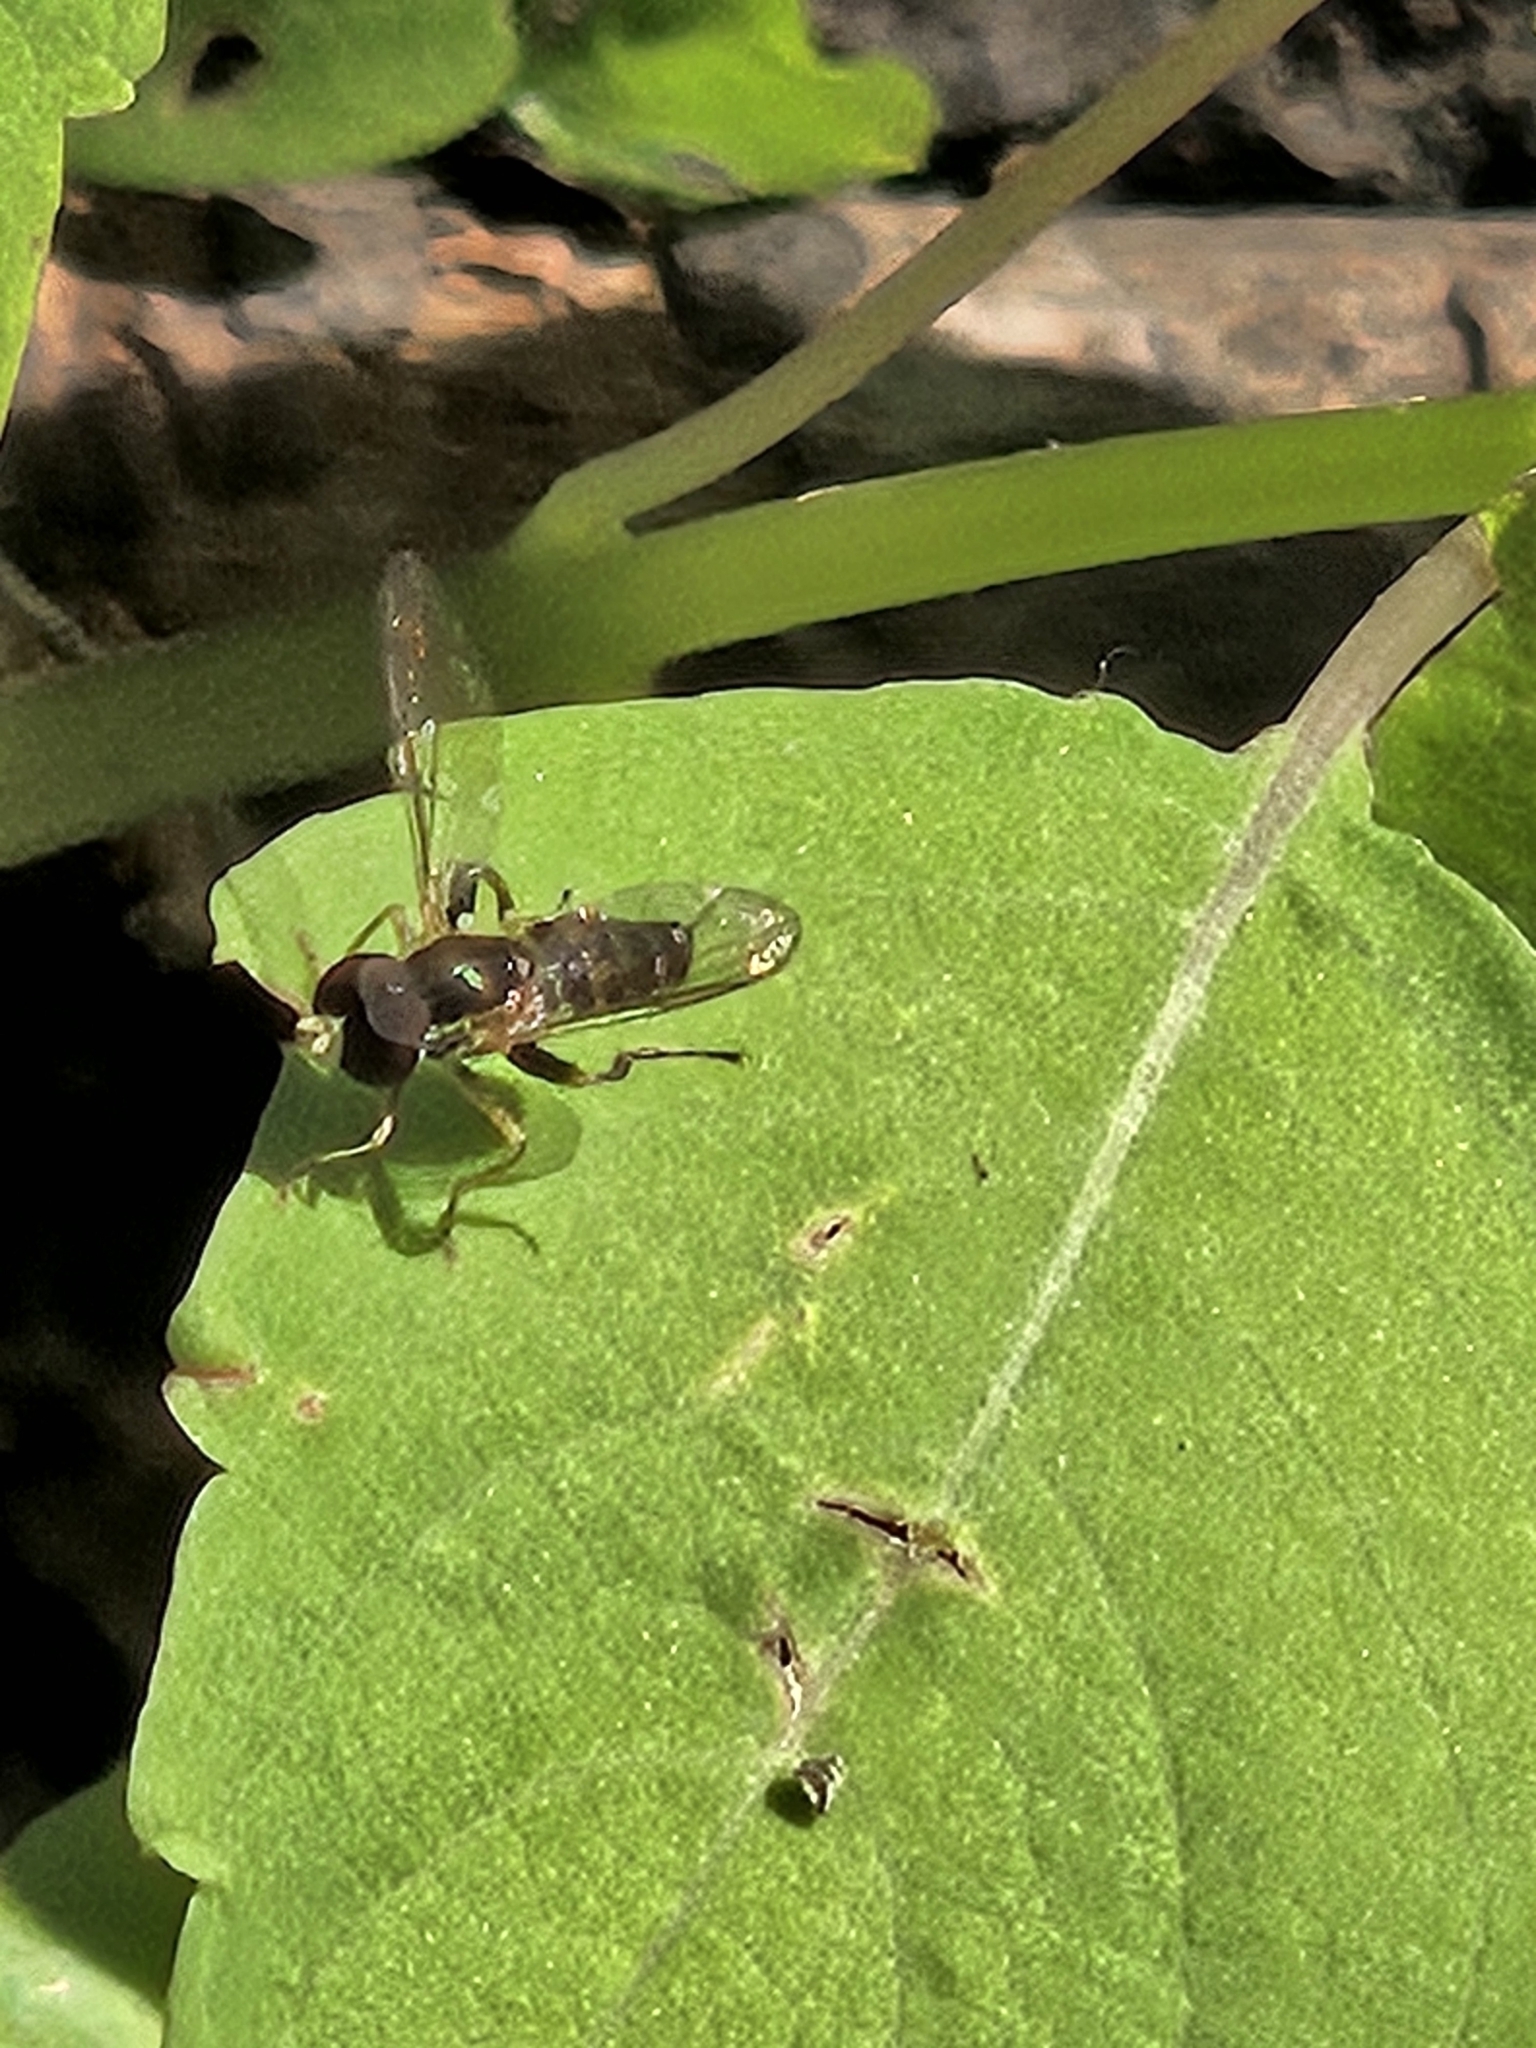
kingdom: Animalia
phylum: Arthropoda
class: Insecta
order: Diptera
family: Syrphidae
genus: Toxomerus
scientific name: Toxomerus geminatus
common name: Eastern calligrapher
